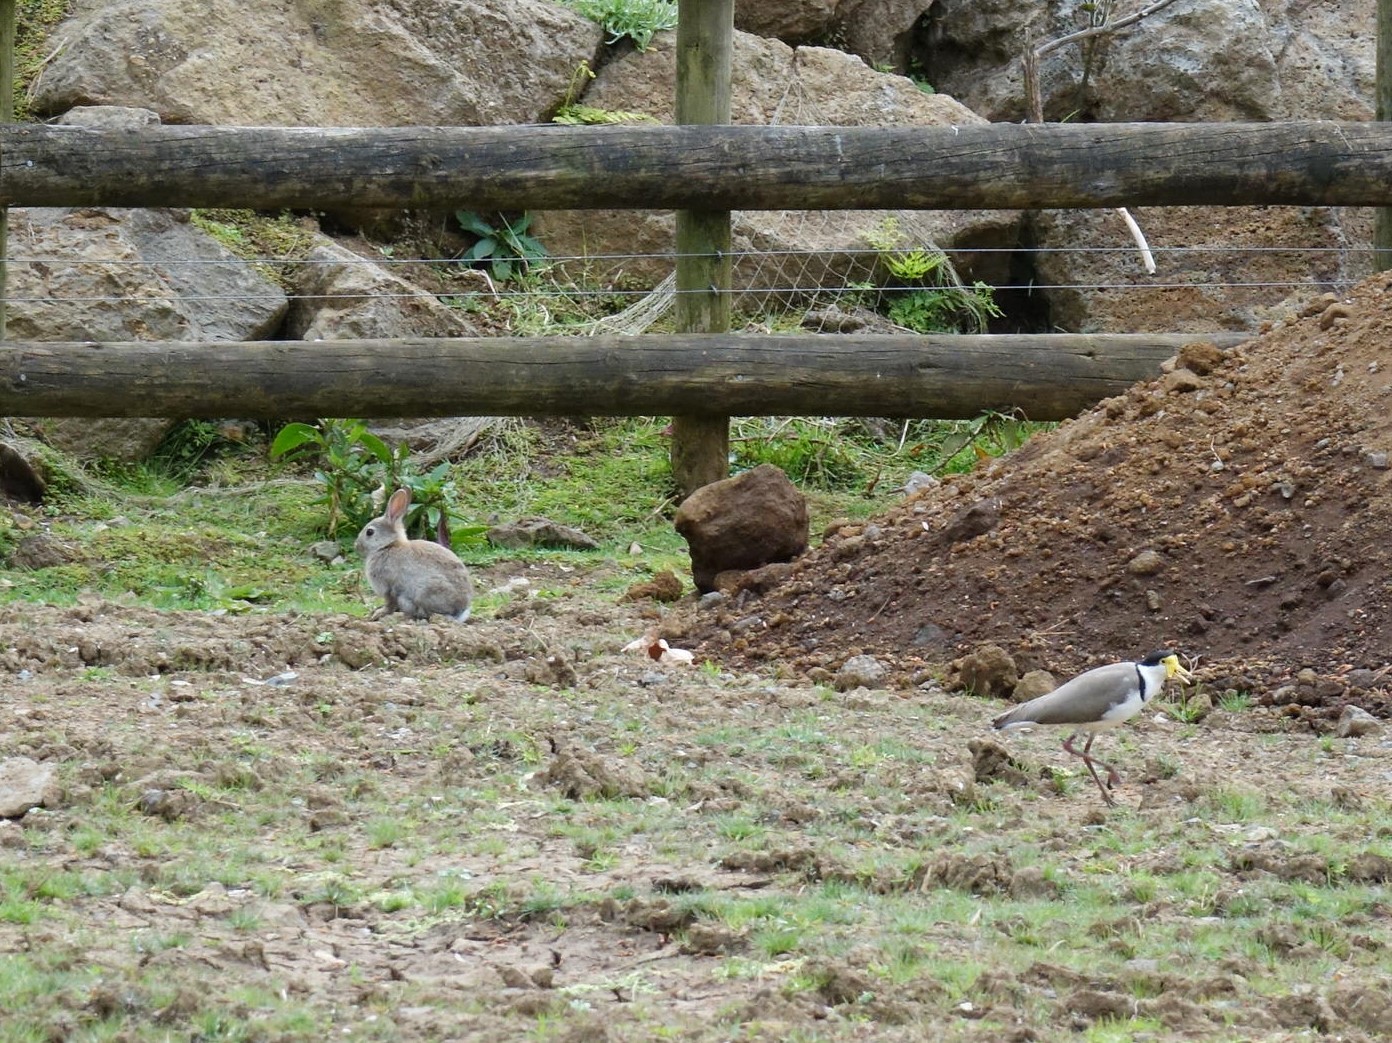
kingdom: Animalia
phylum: Chordata
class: Mammalia
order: Lagomorpha
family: Leporidae
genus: Oryctolagus
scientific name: Oryctolagus cuniculus
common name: European rabbit
